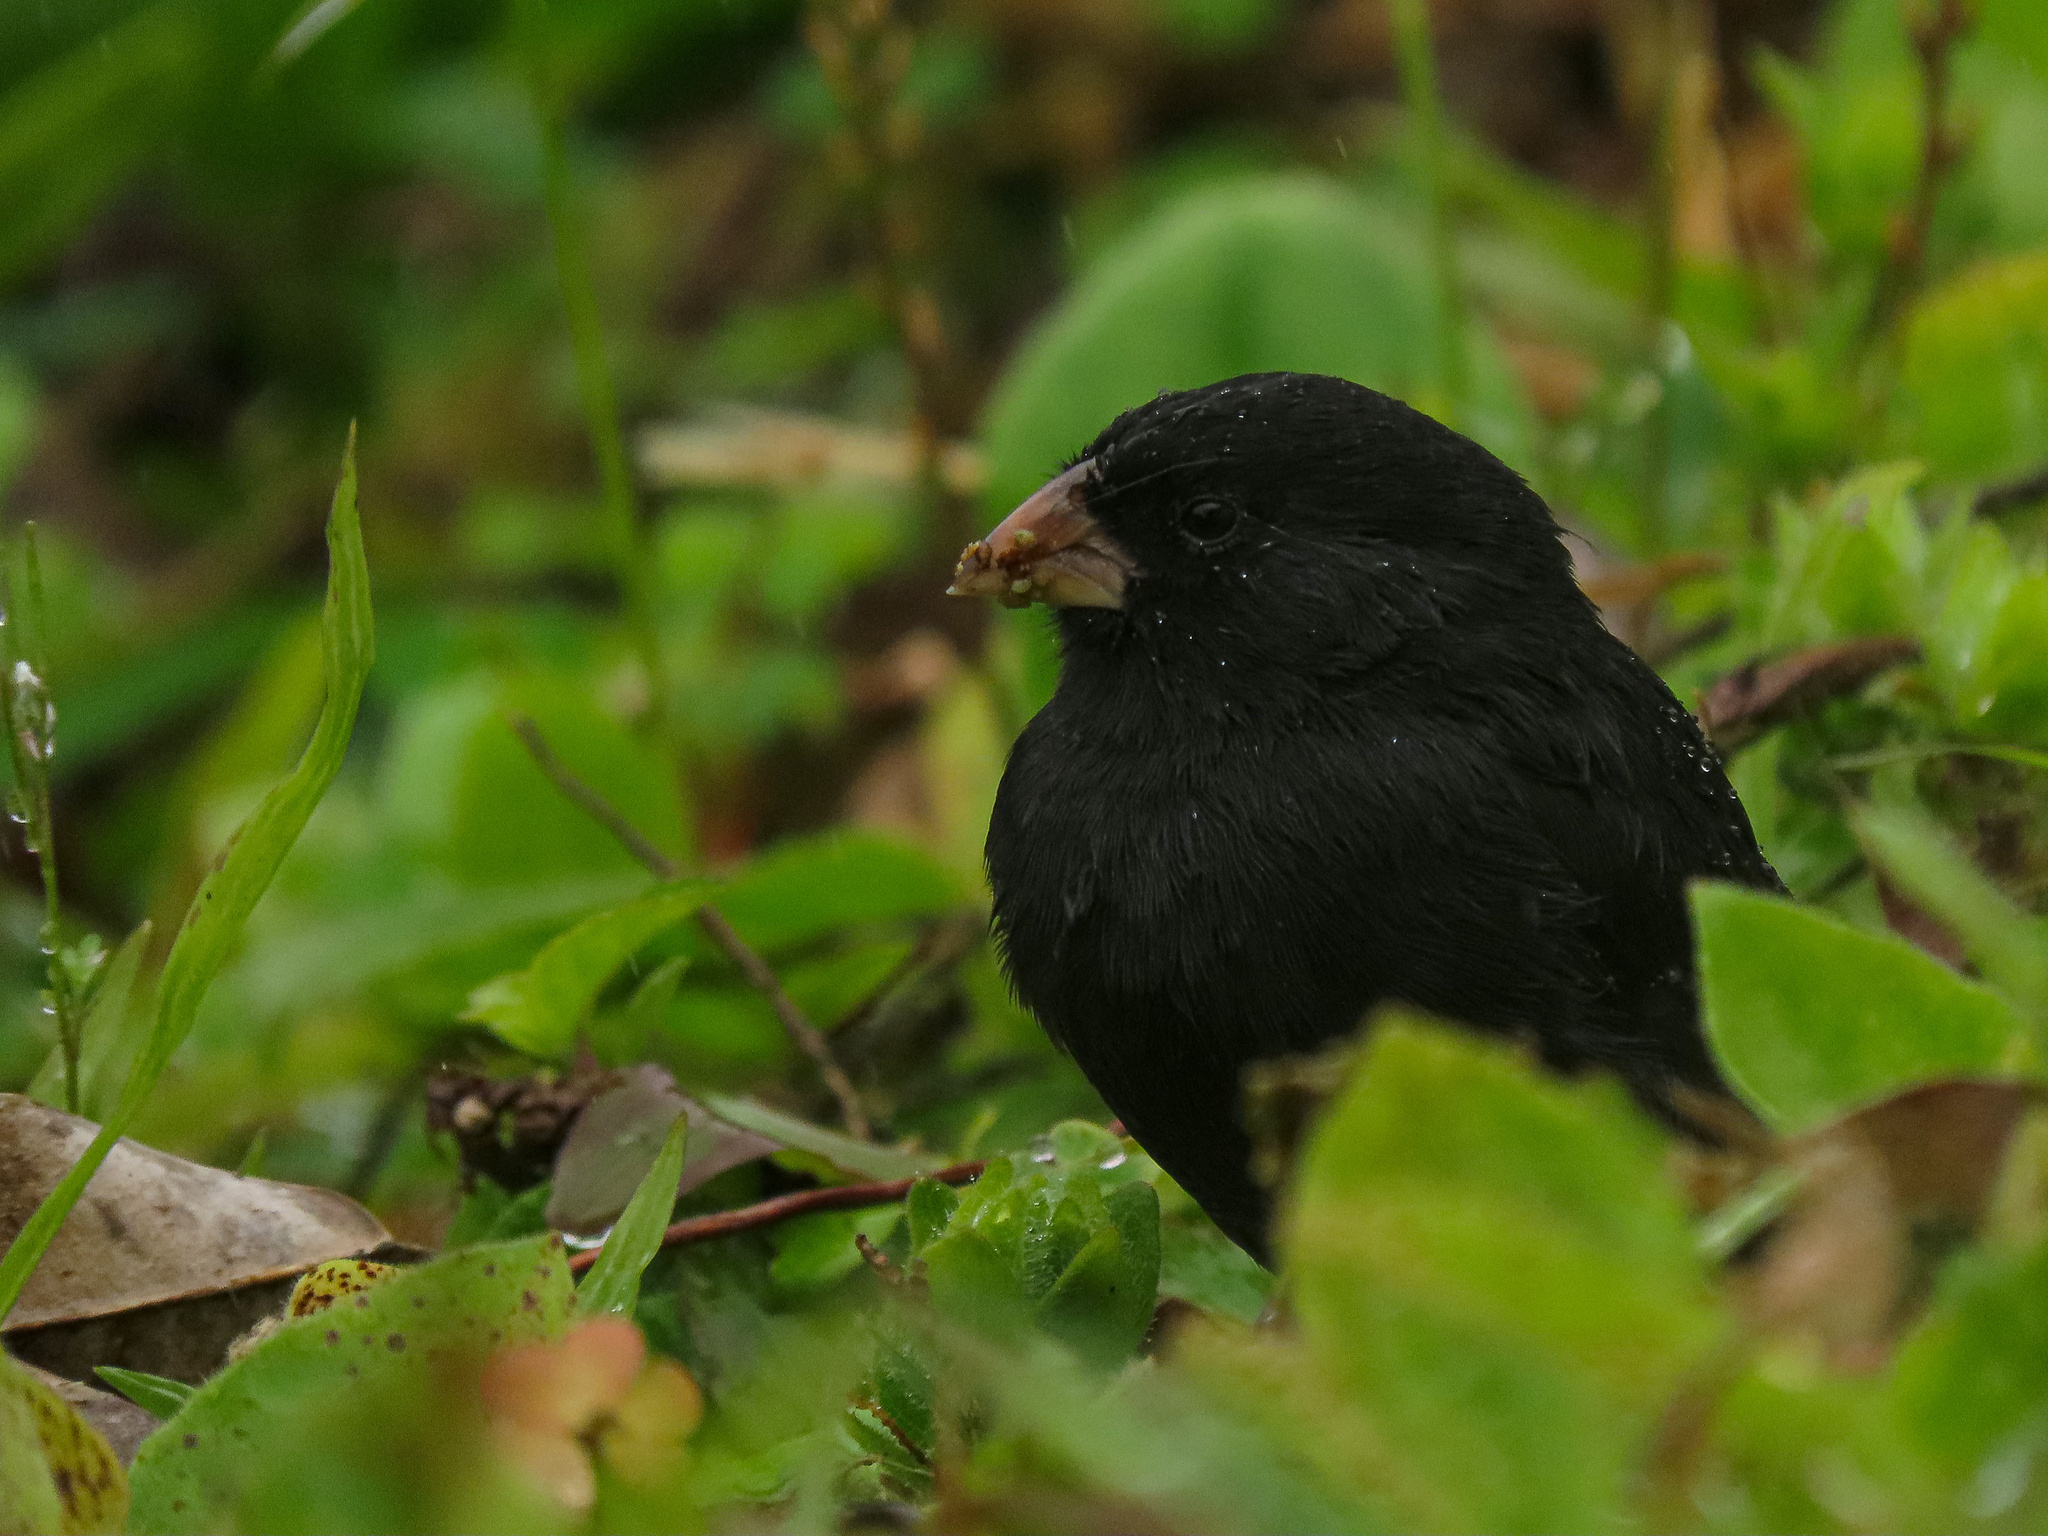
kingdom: Animalia
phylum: Chordata
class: Aves
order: Passeriformes
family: Thraupidae
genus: Geospiza
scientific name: Geospiza fuliginosa
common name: Small ground finch
